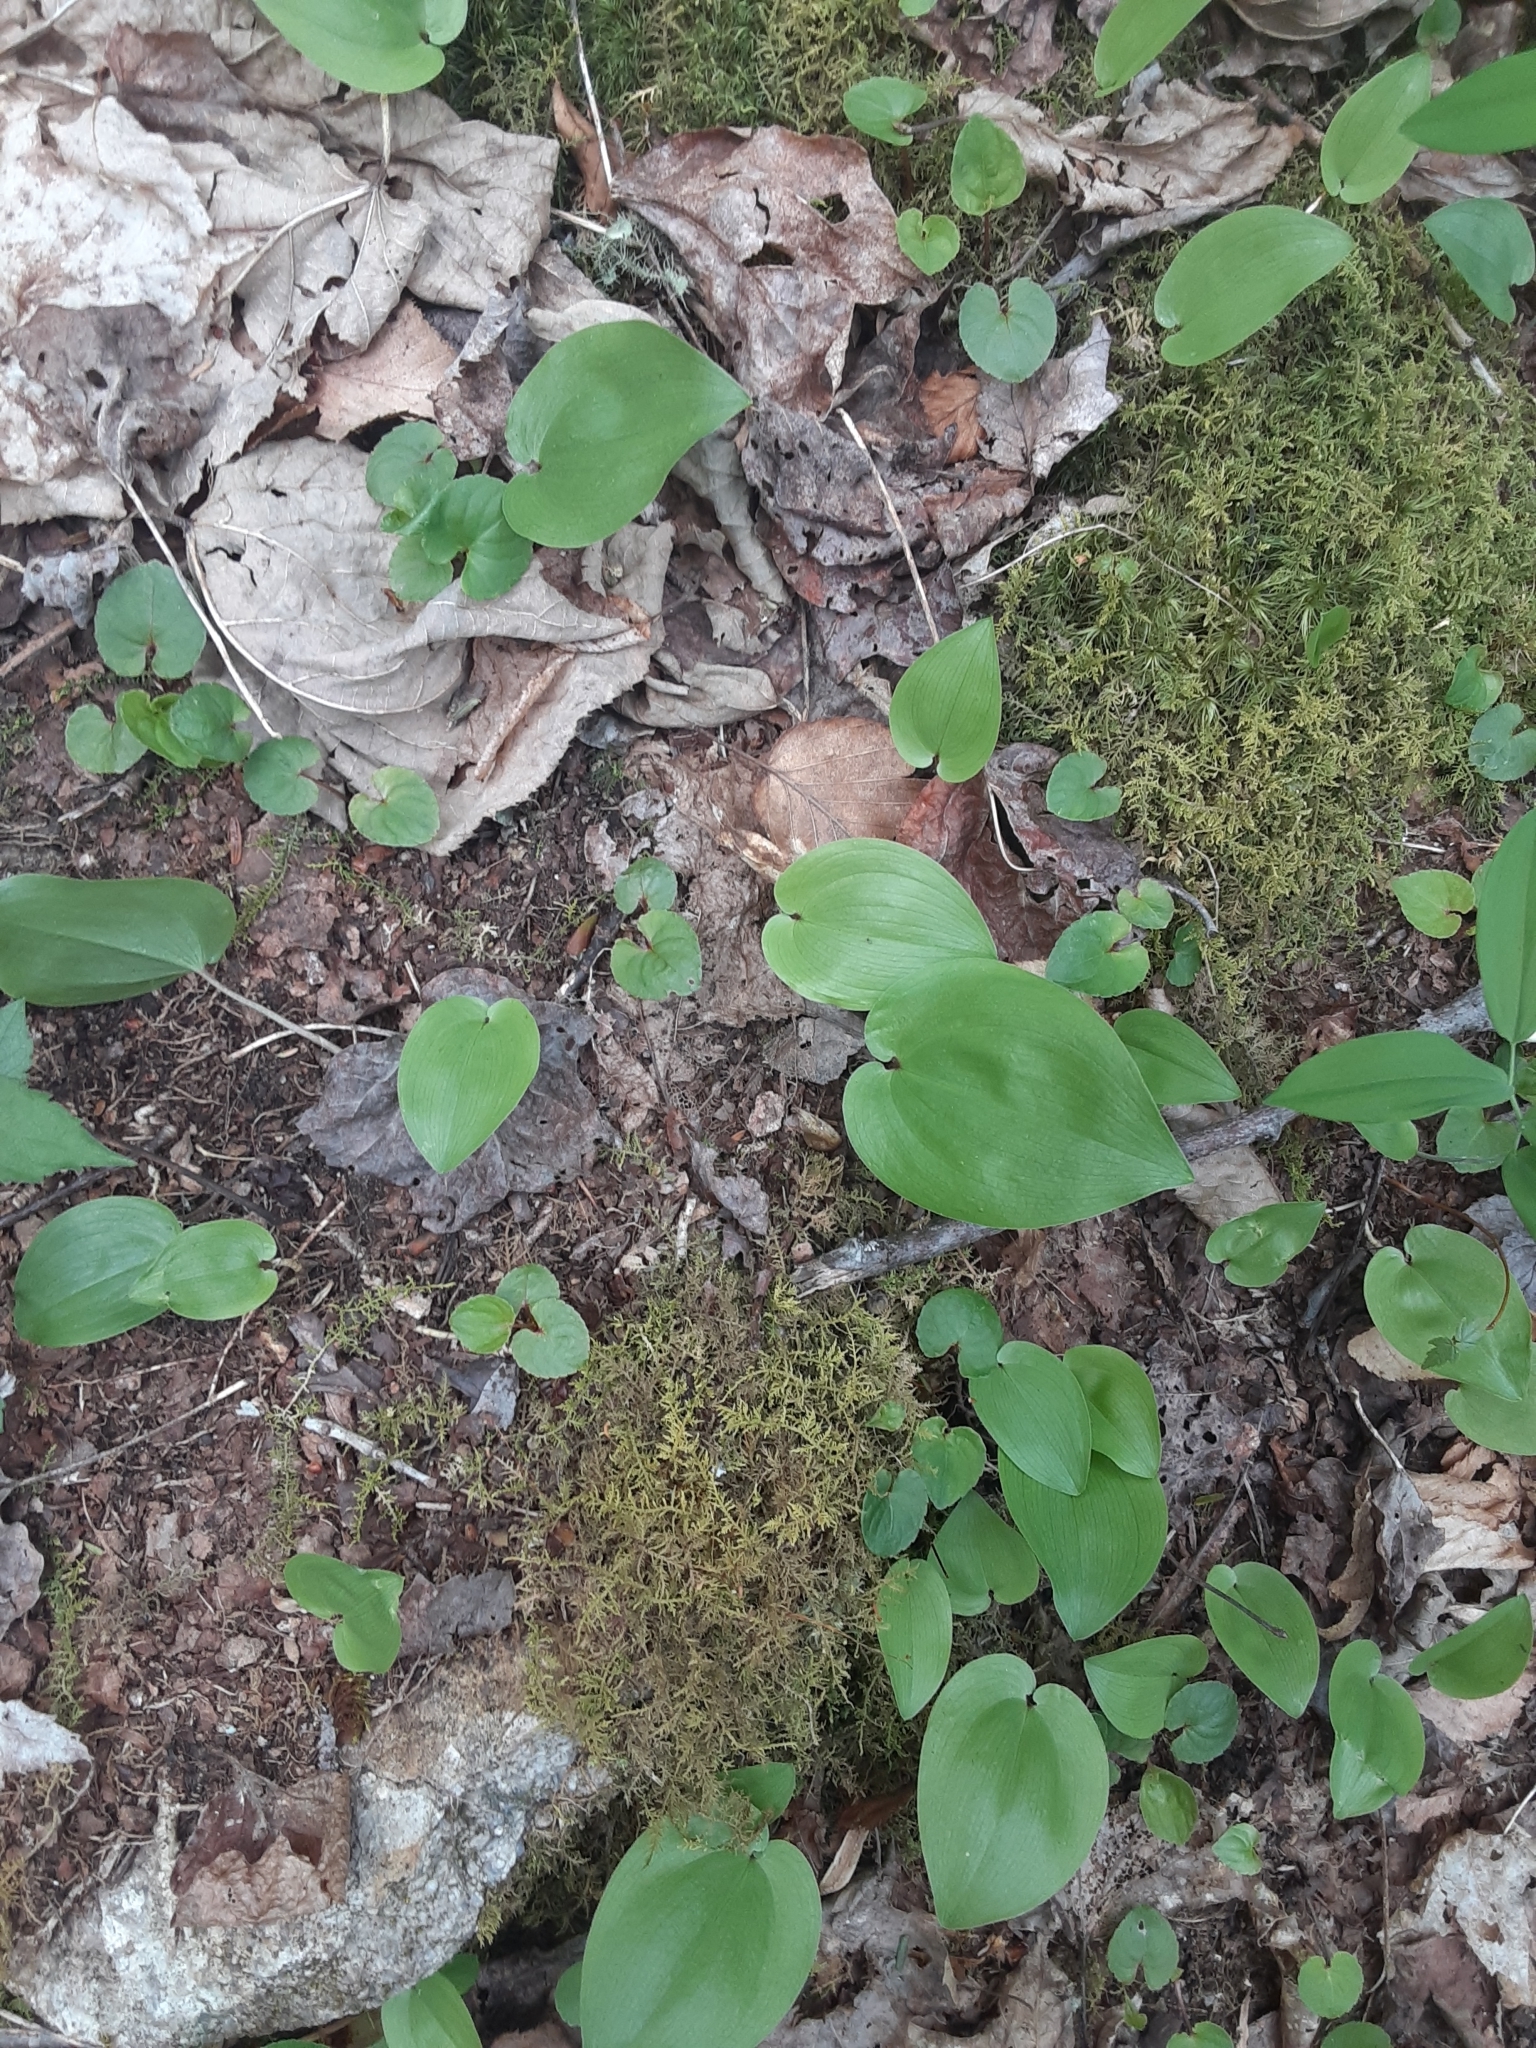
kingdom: Plantae
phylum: Tracheophyta
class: Liliopsida
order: Asparagales
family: Asparagaceae
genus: Maianthemum
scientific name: Maianthemum canadense
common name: False lily-of-the-valley
